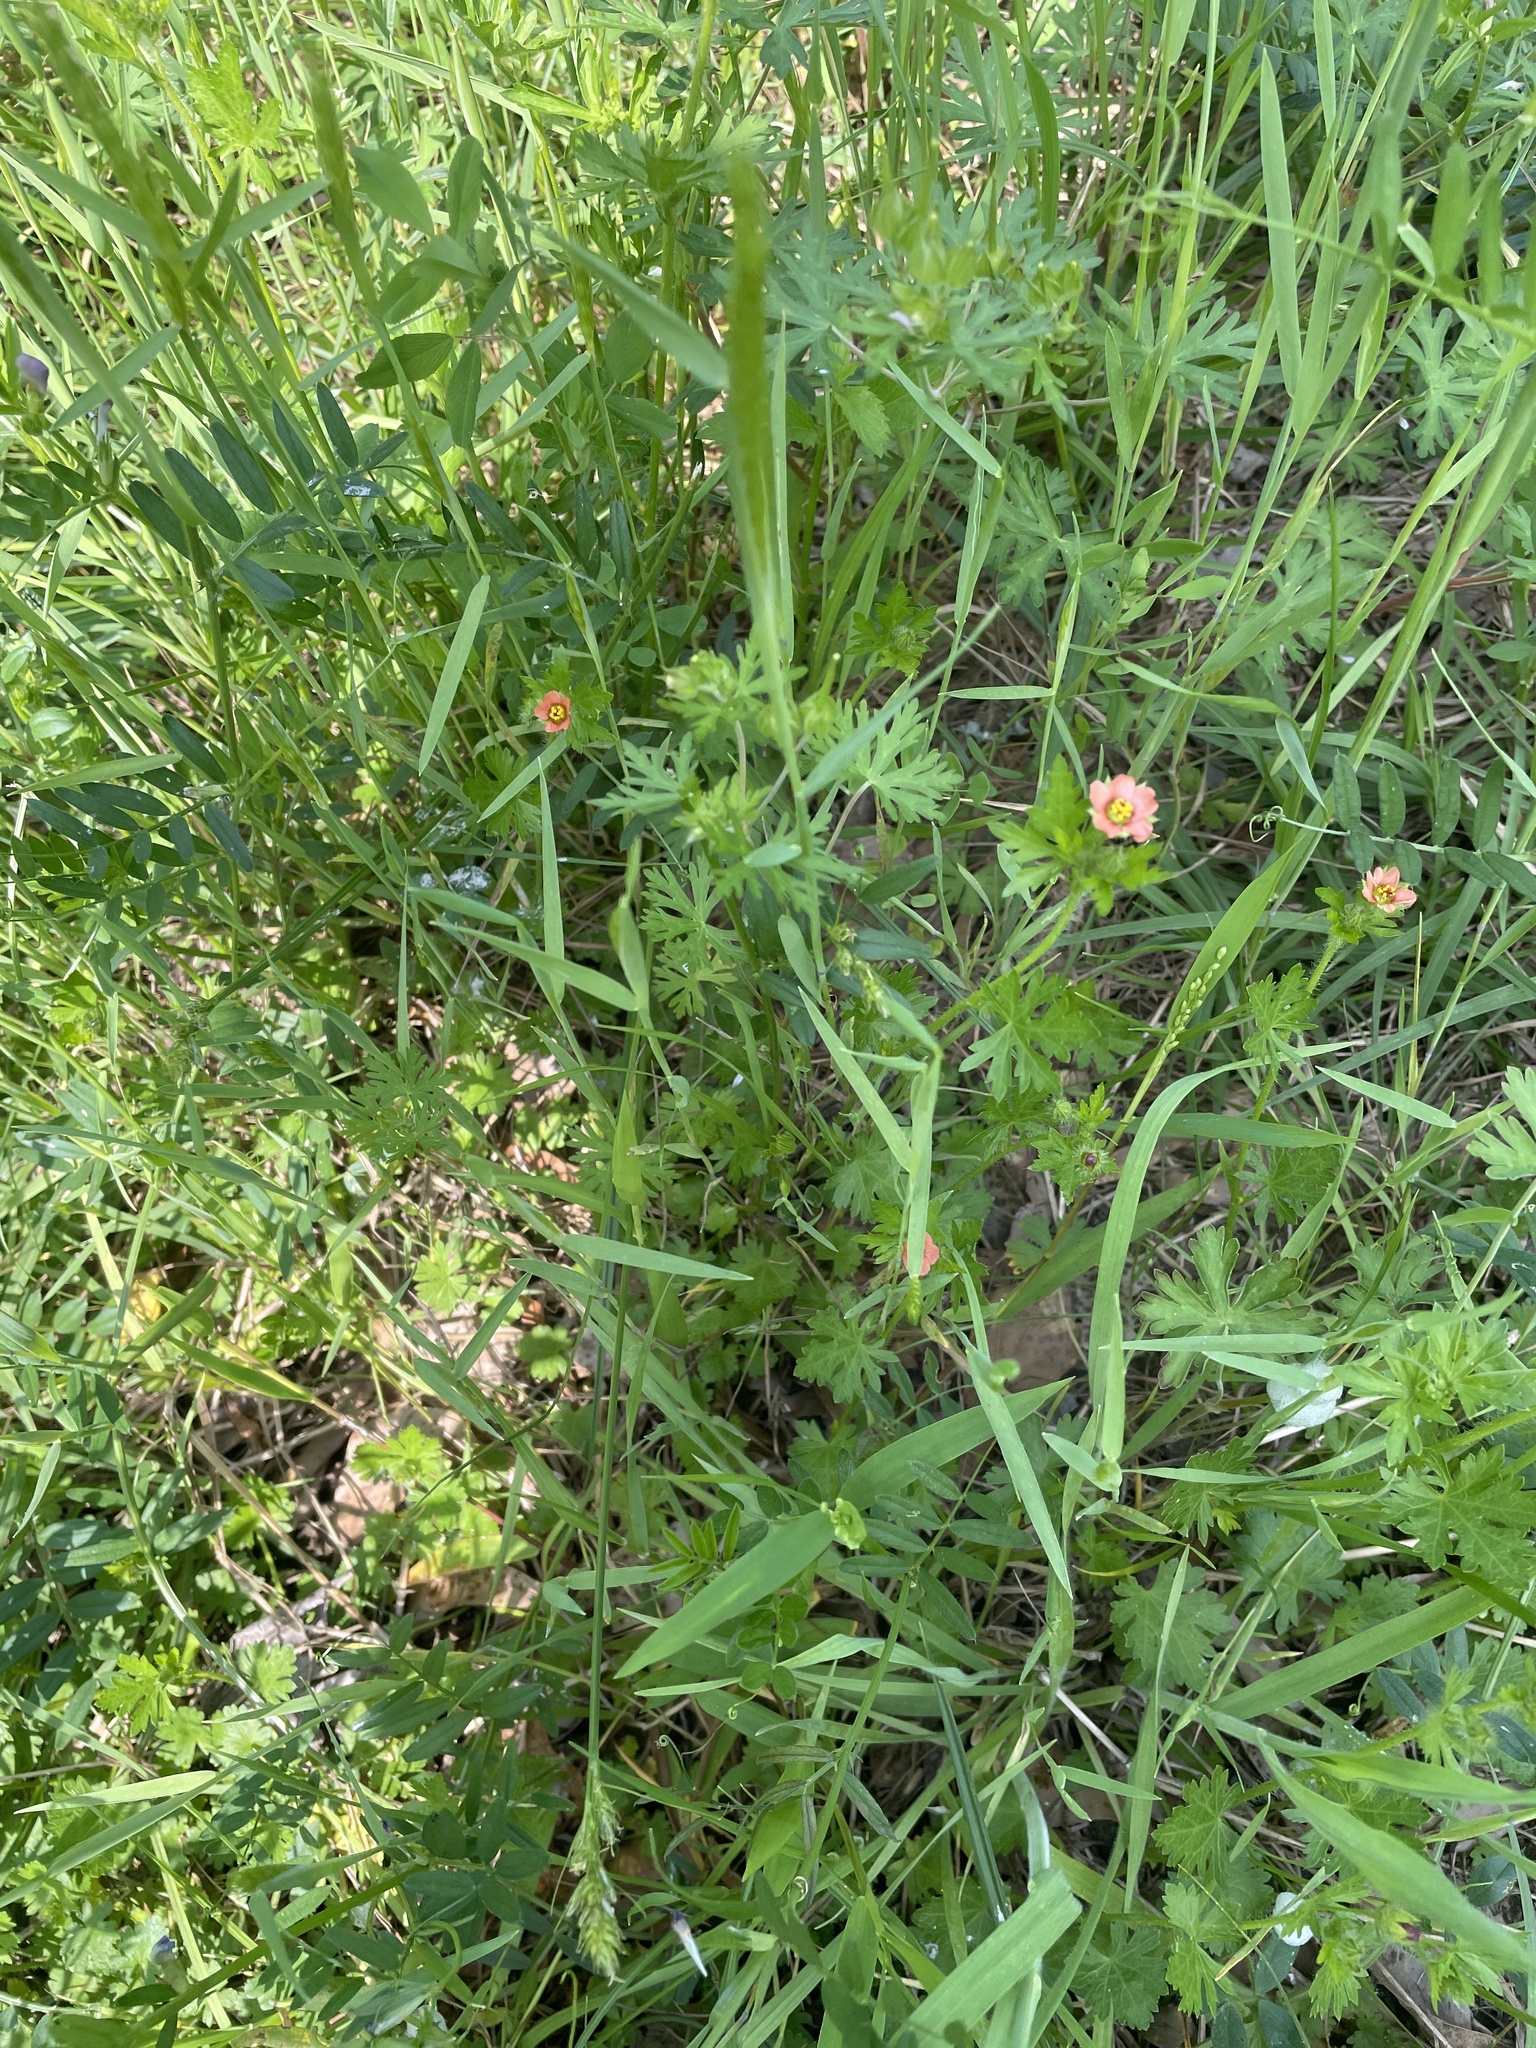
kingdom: Plantae
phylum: Tracheophyta
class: Magnoliopsida
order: Malvales
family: Malvaceae
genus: Modiola
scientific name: Modiola caroliniana
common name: Carolina bristlemallow
